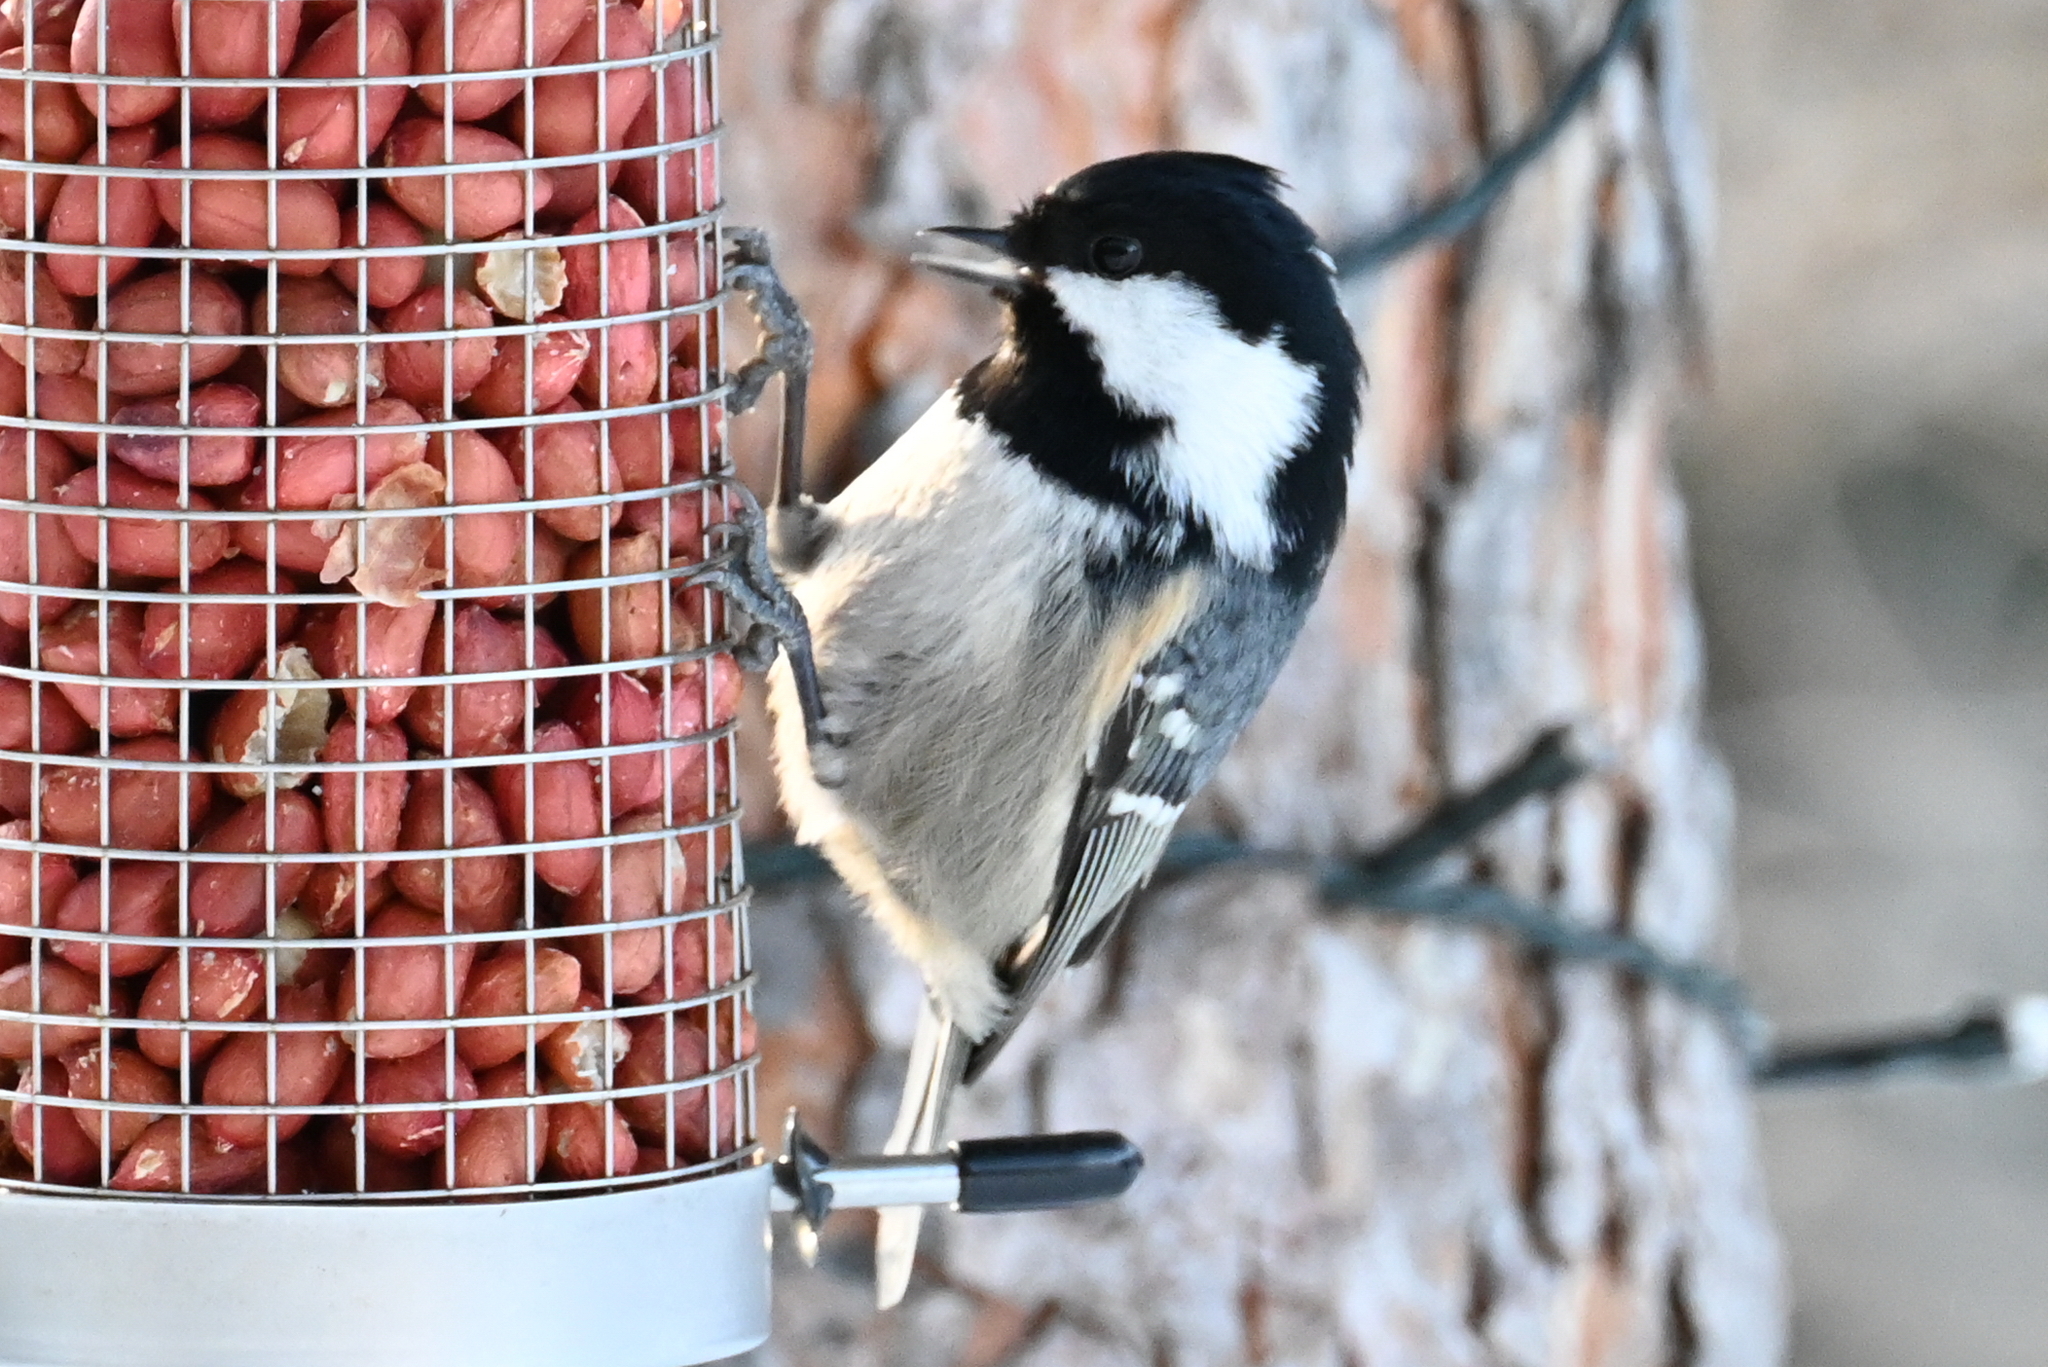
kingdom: Animalia
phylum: Chordata
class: Aves
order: Passeriformes
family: Paridae
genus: Periparus
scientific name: Periparus ater
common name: Coal tit
